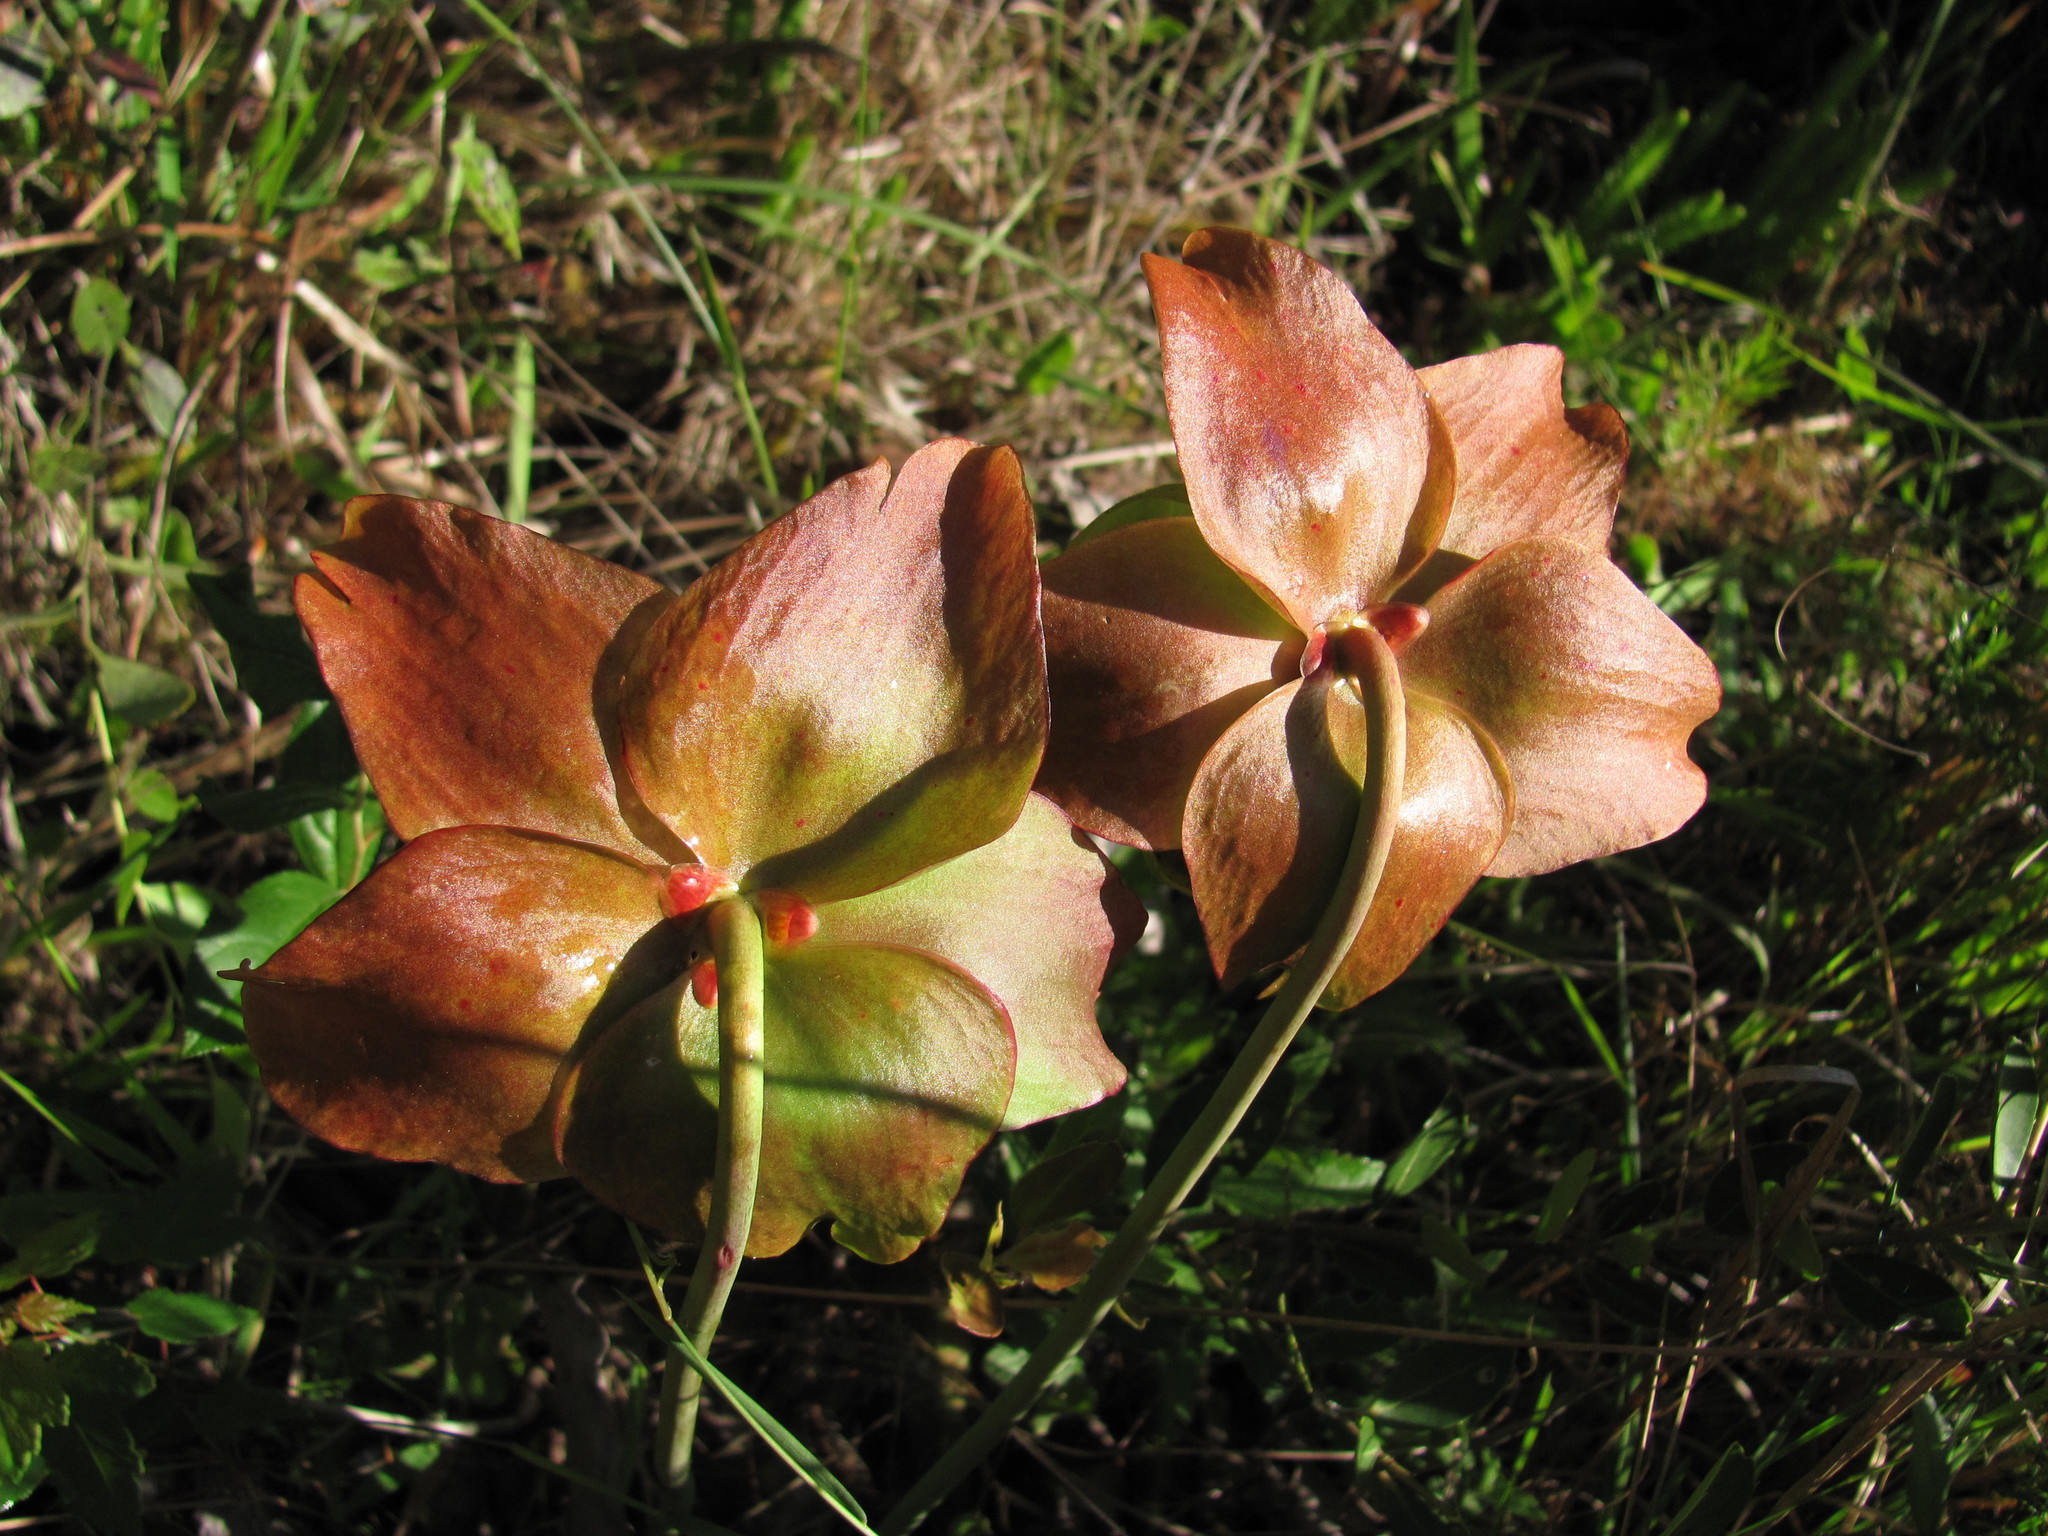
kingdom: Plantae
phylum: Tracheophyta
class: Magnoliopsida
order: Ericales
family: Sarraceniaceae
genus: Sarracenia
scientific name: Sarracenia mitchelliana
